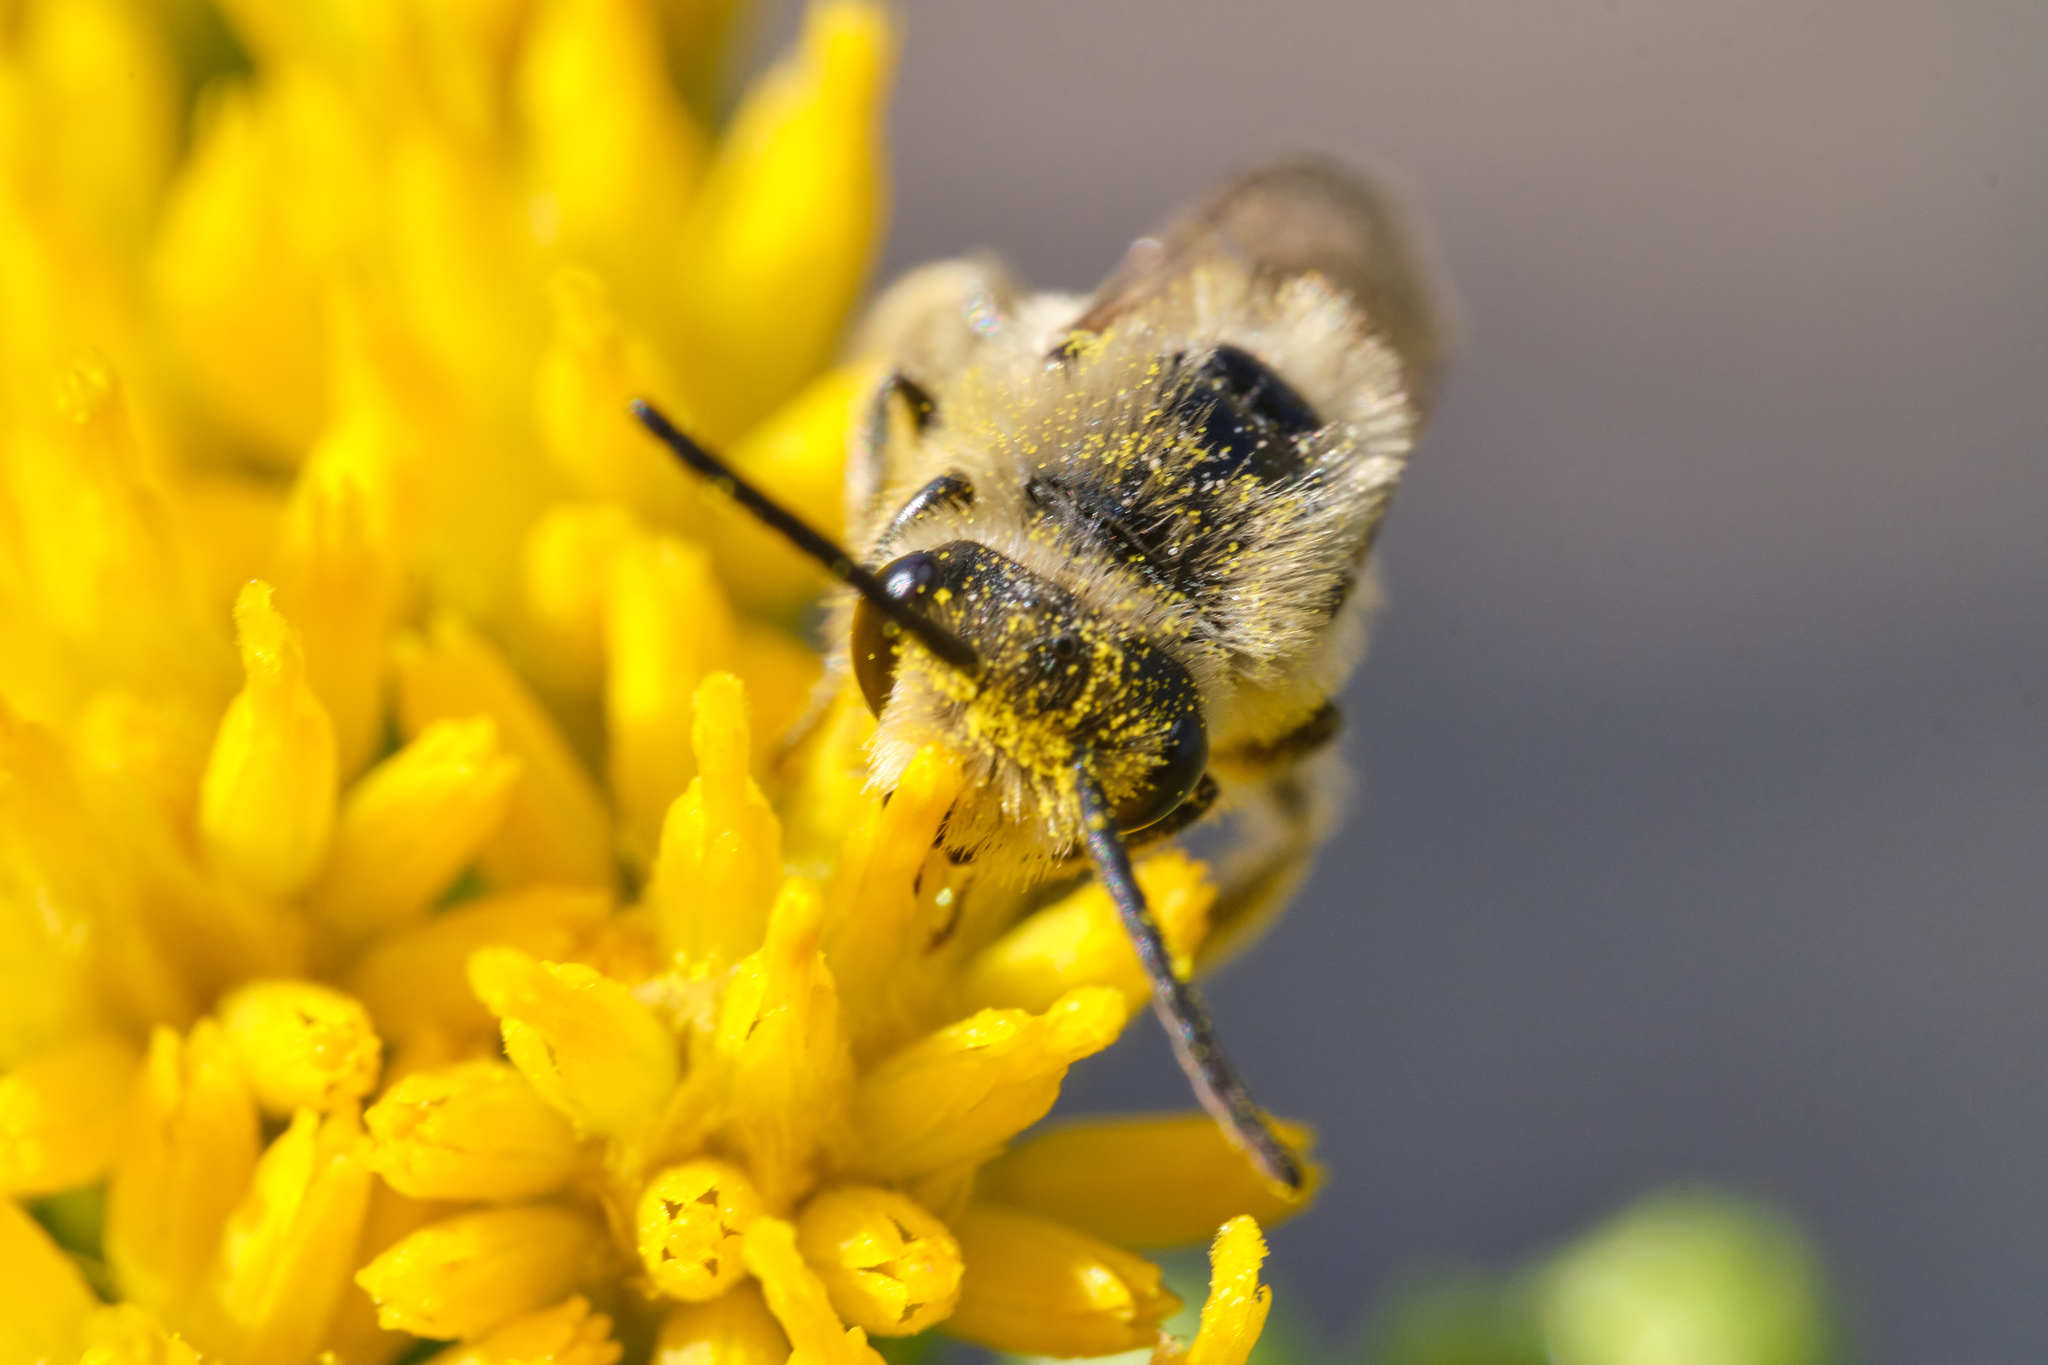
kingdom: Animalia
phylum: Arthropoda
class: Insecta
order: Hymenoptera
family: Colletidae
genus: Colletes
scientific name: Colletes
